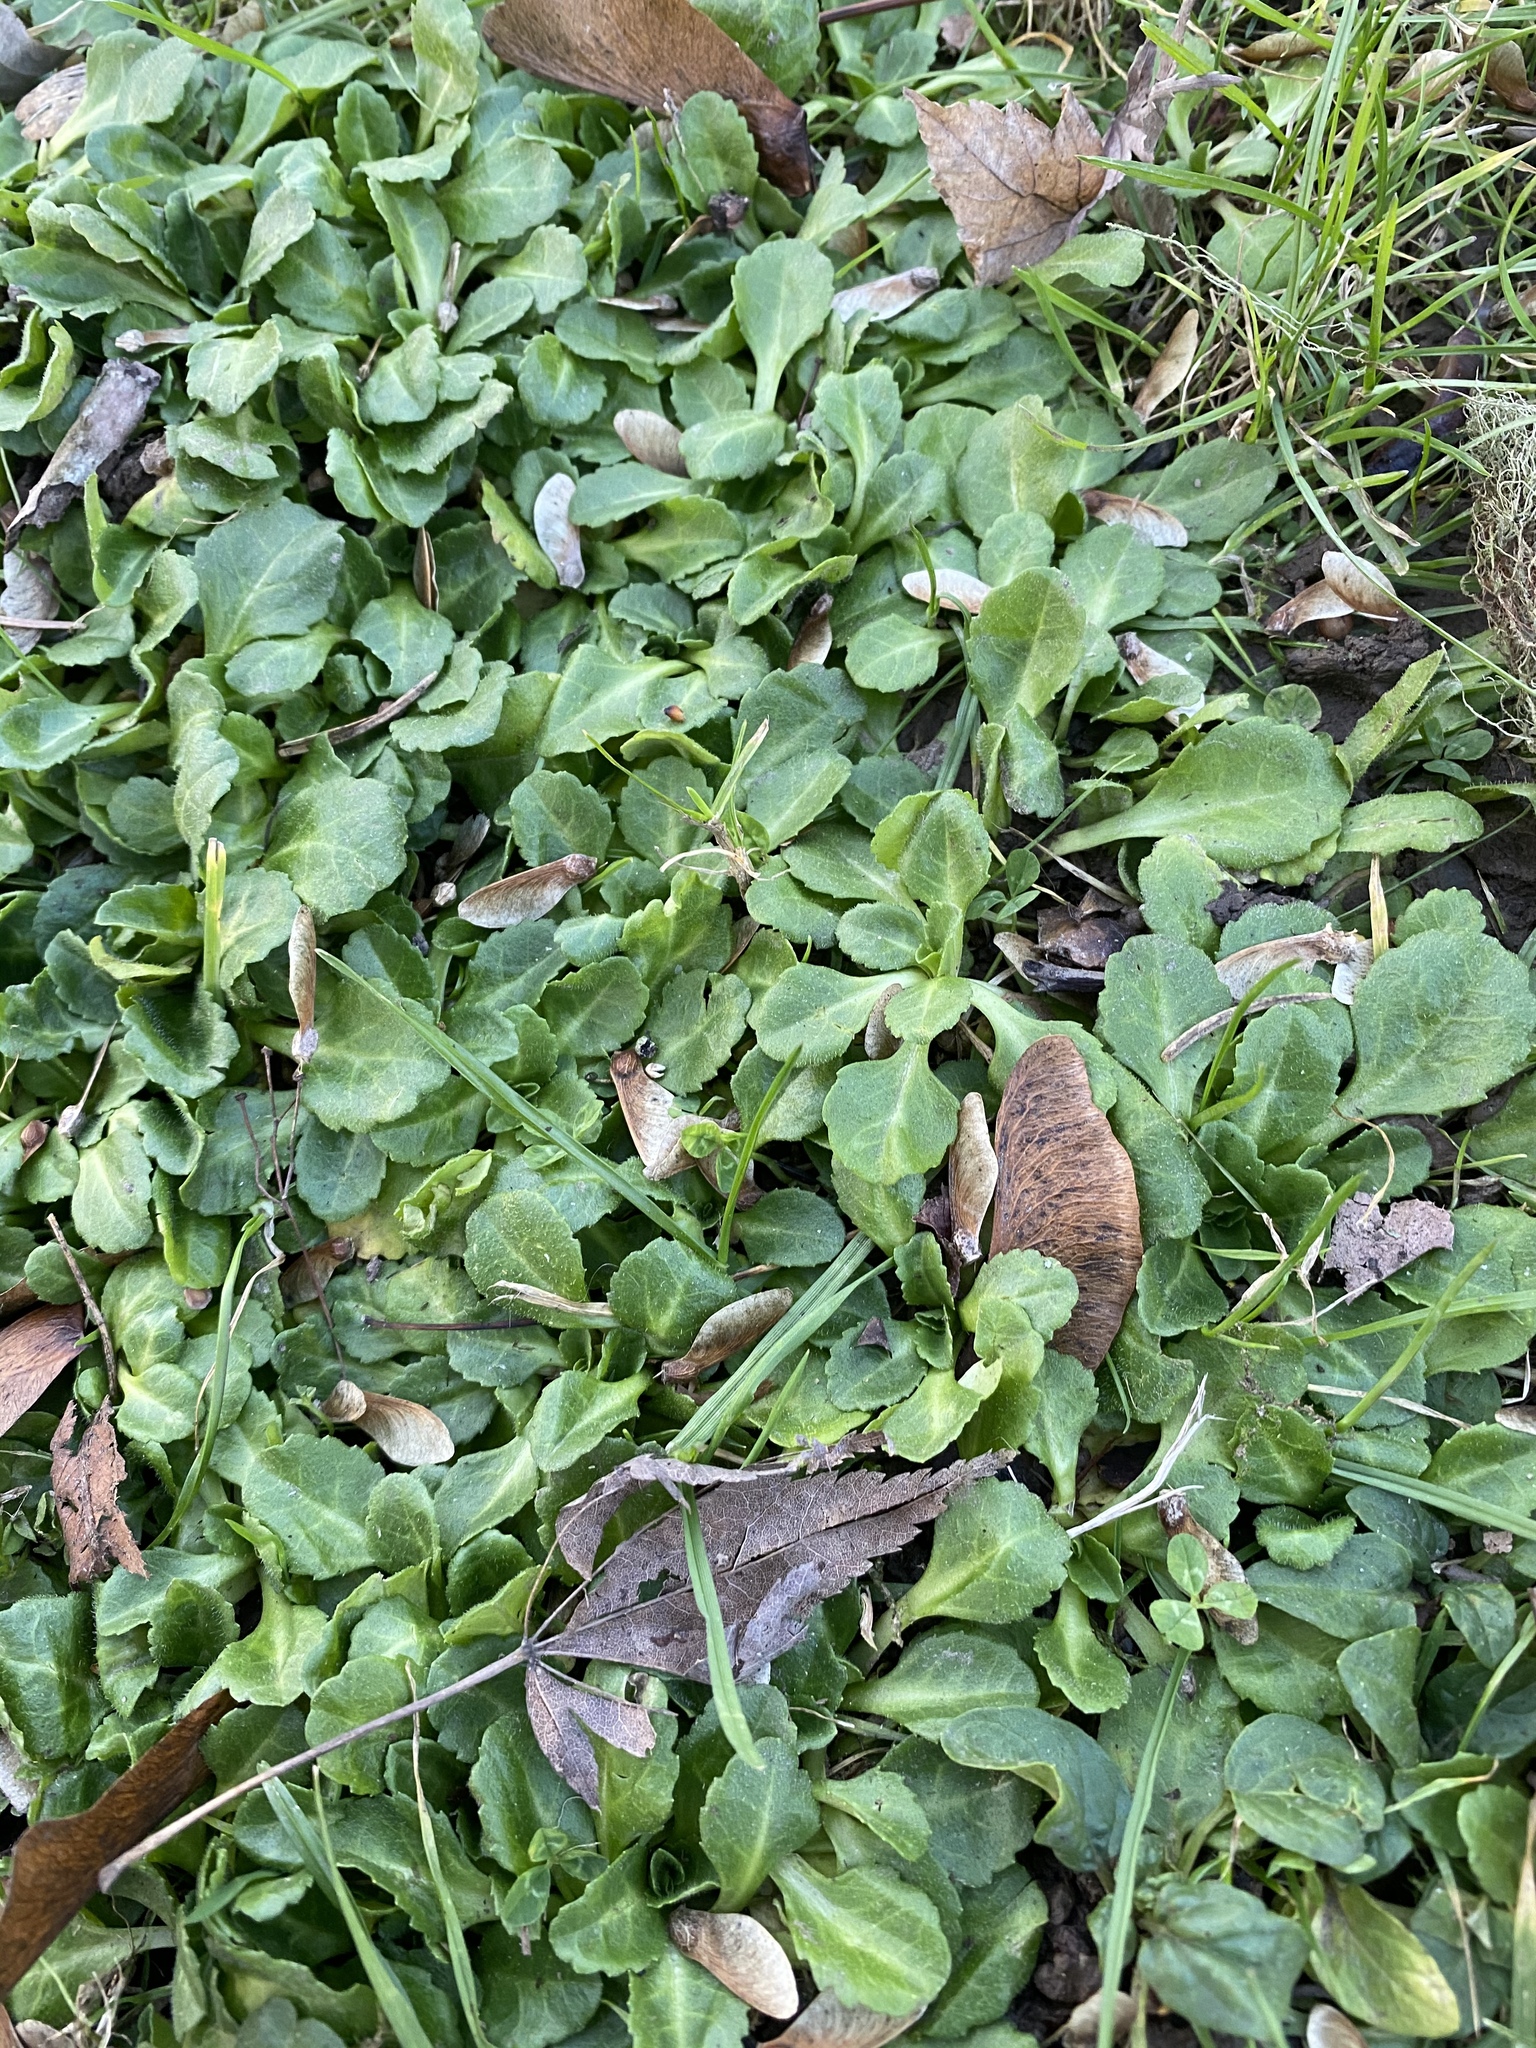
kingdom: Plantae
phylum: Tracheophyta
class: Magnoliopsida
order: Asterales
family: Asteraceae
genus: Bellis
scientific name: Bellis perennis
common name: Lawndaisy
